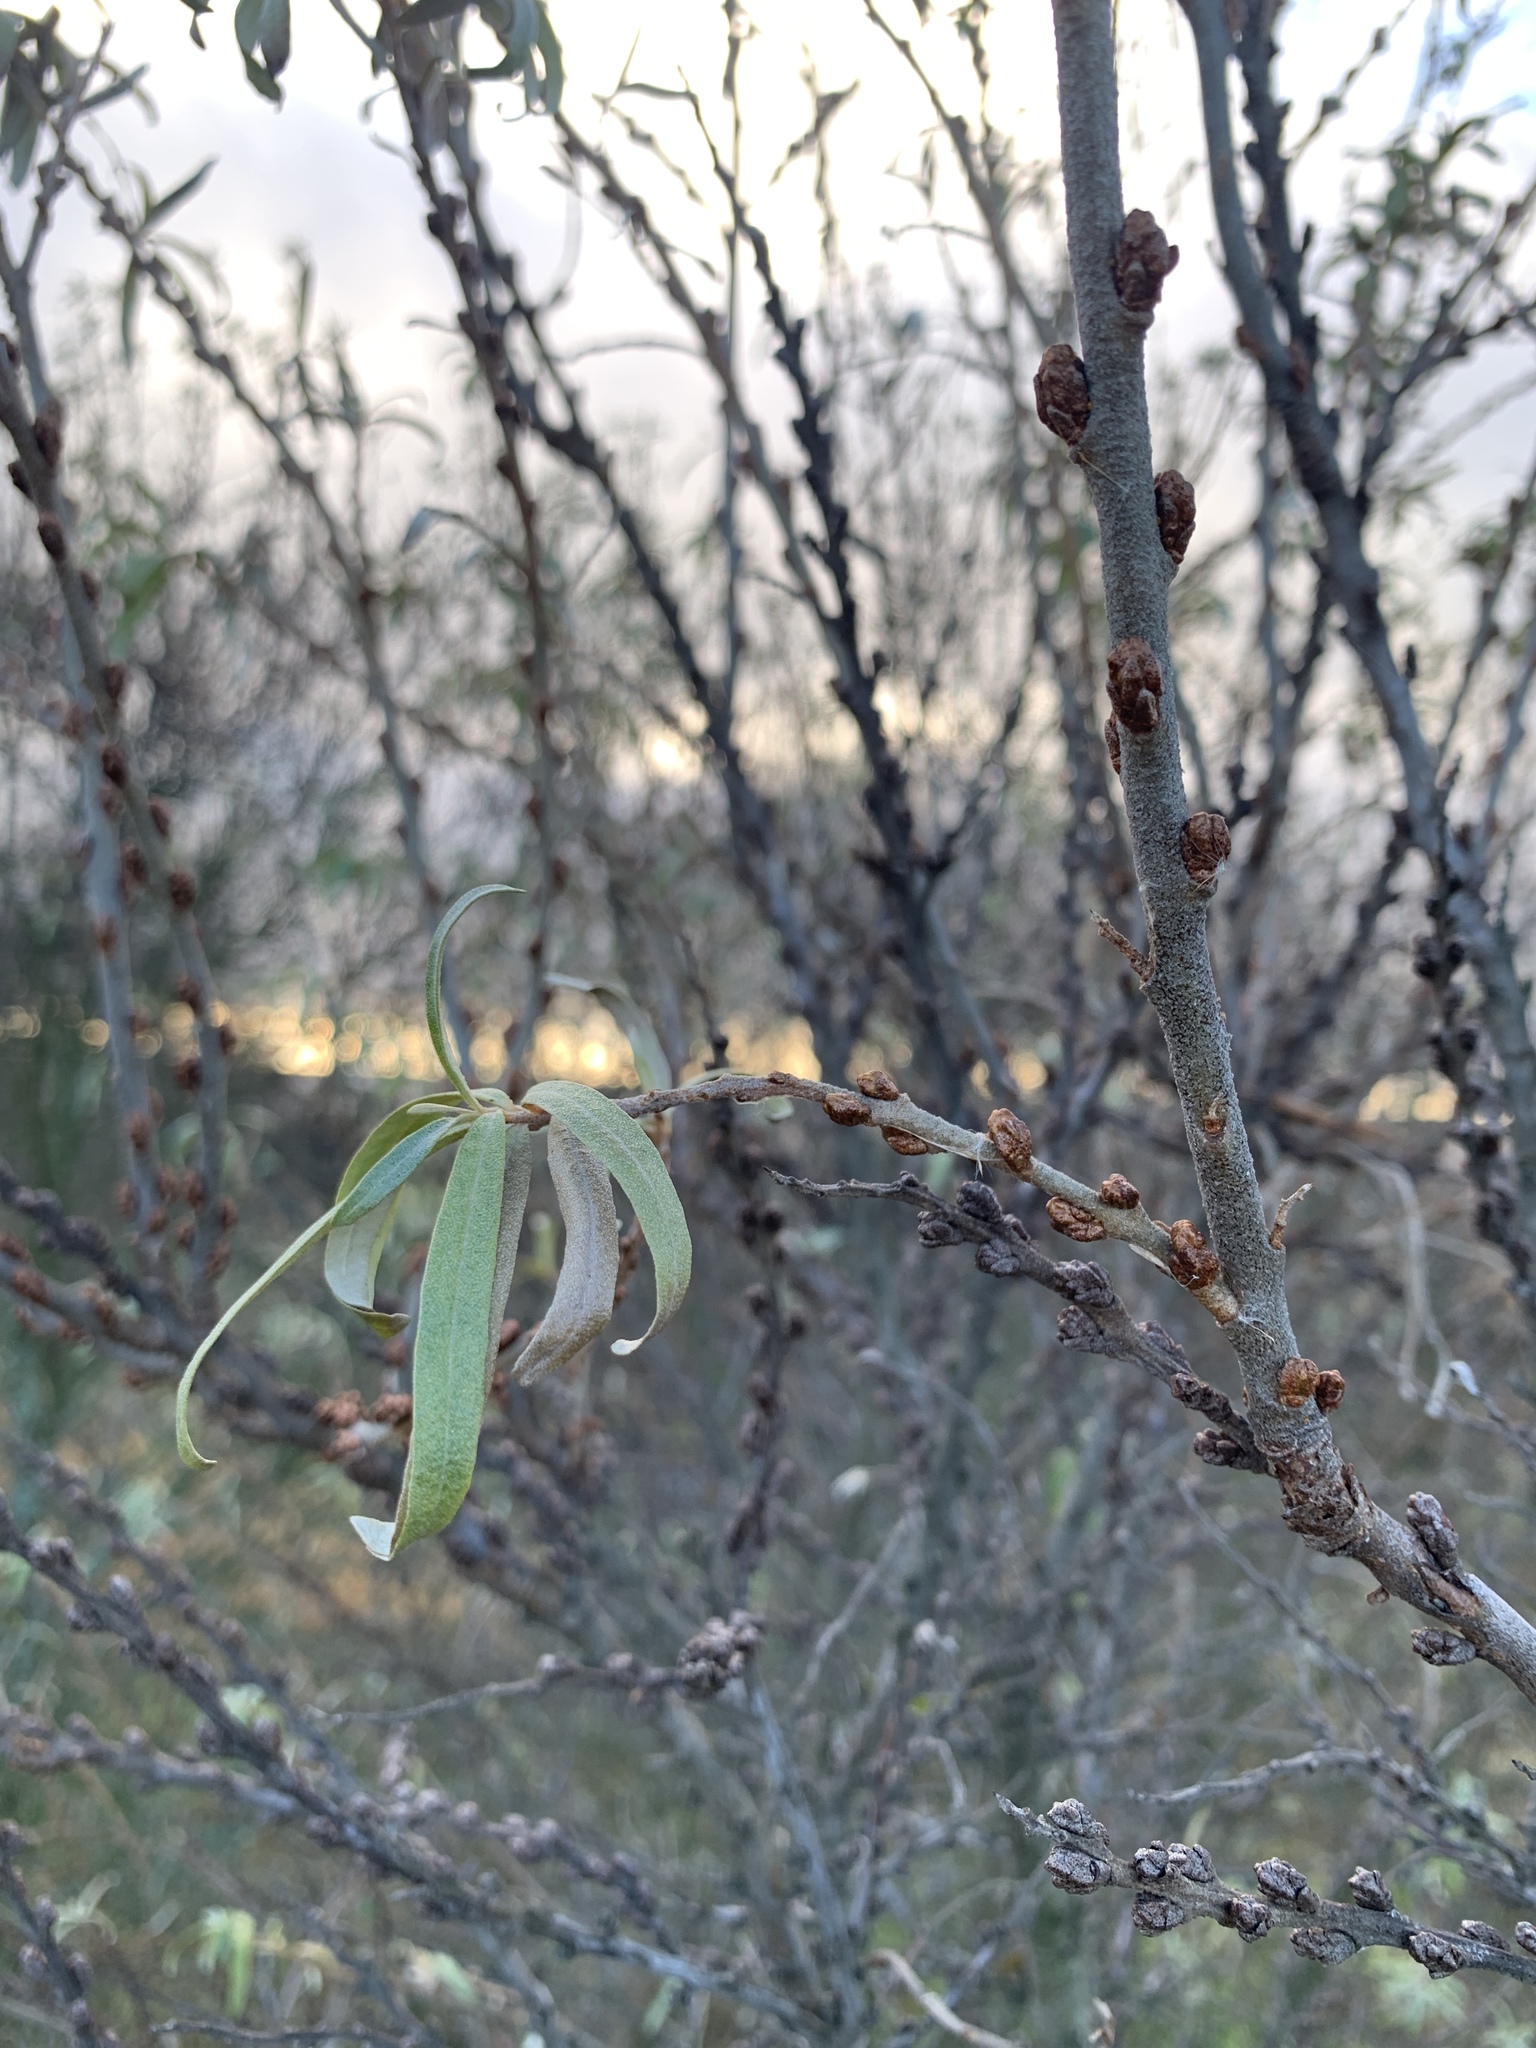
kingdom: Plantae
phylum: Tracheophyta
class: Magnoliopsida
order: Rosales
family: Elaeagnaceae
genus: Hippophae
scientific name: Hippophae rhamnoides
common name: Sea-buckthorn
